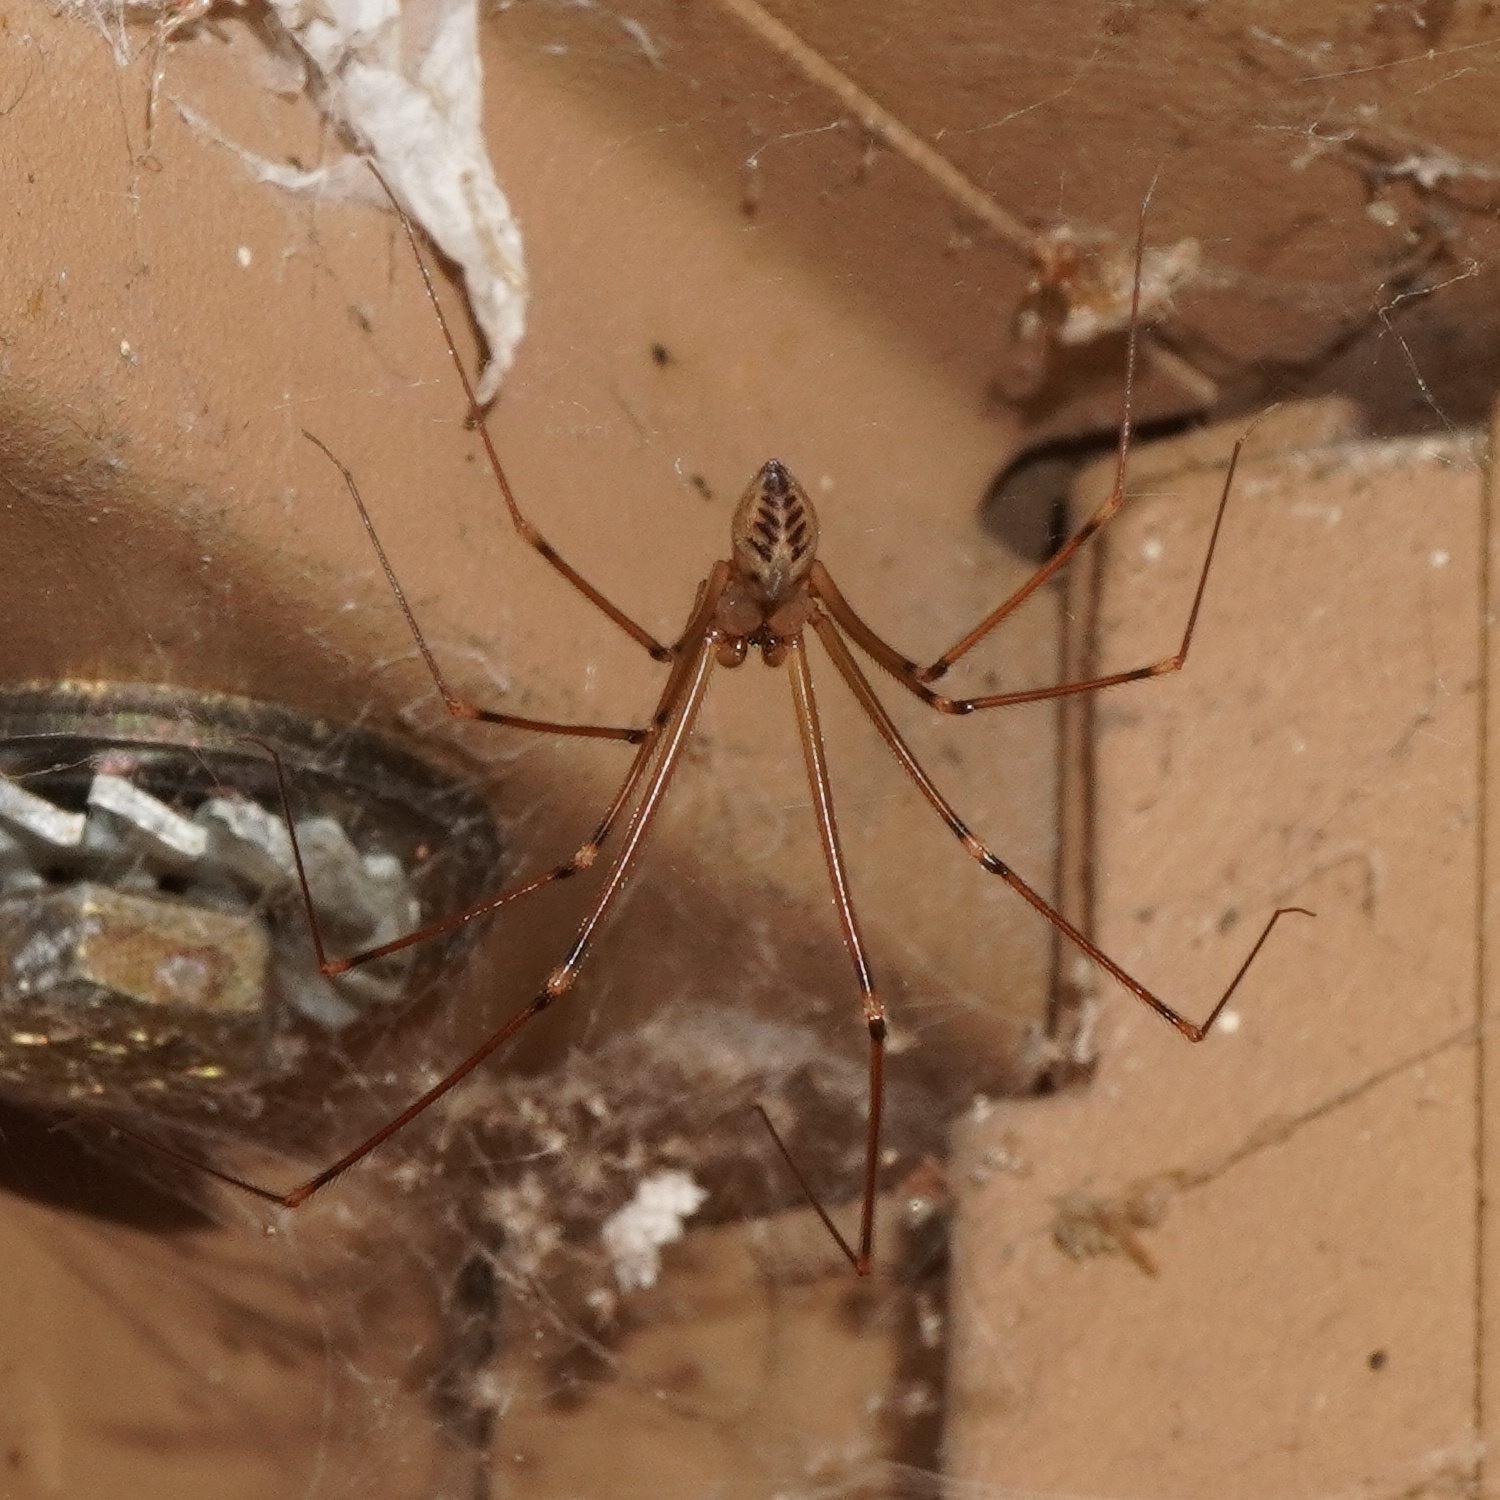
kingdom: Animalia
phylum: Arthropoda
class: Arachnida
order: Araneae
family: Pholcidae
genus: Hoplopholcus
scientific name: Hoplopholcus forskali
